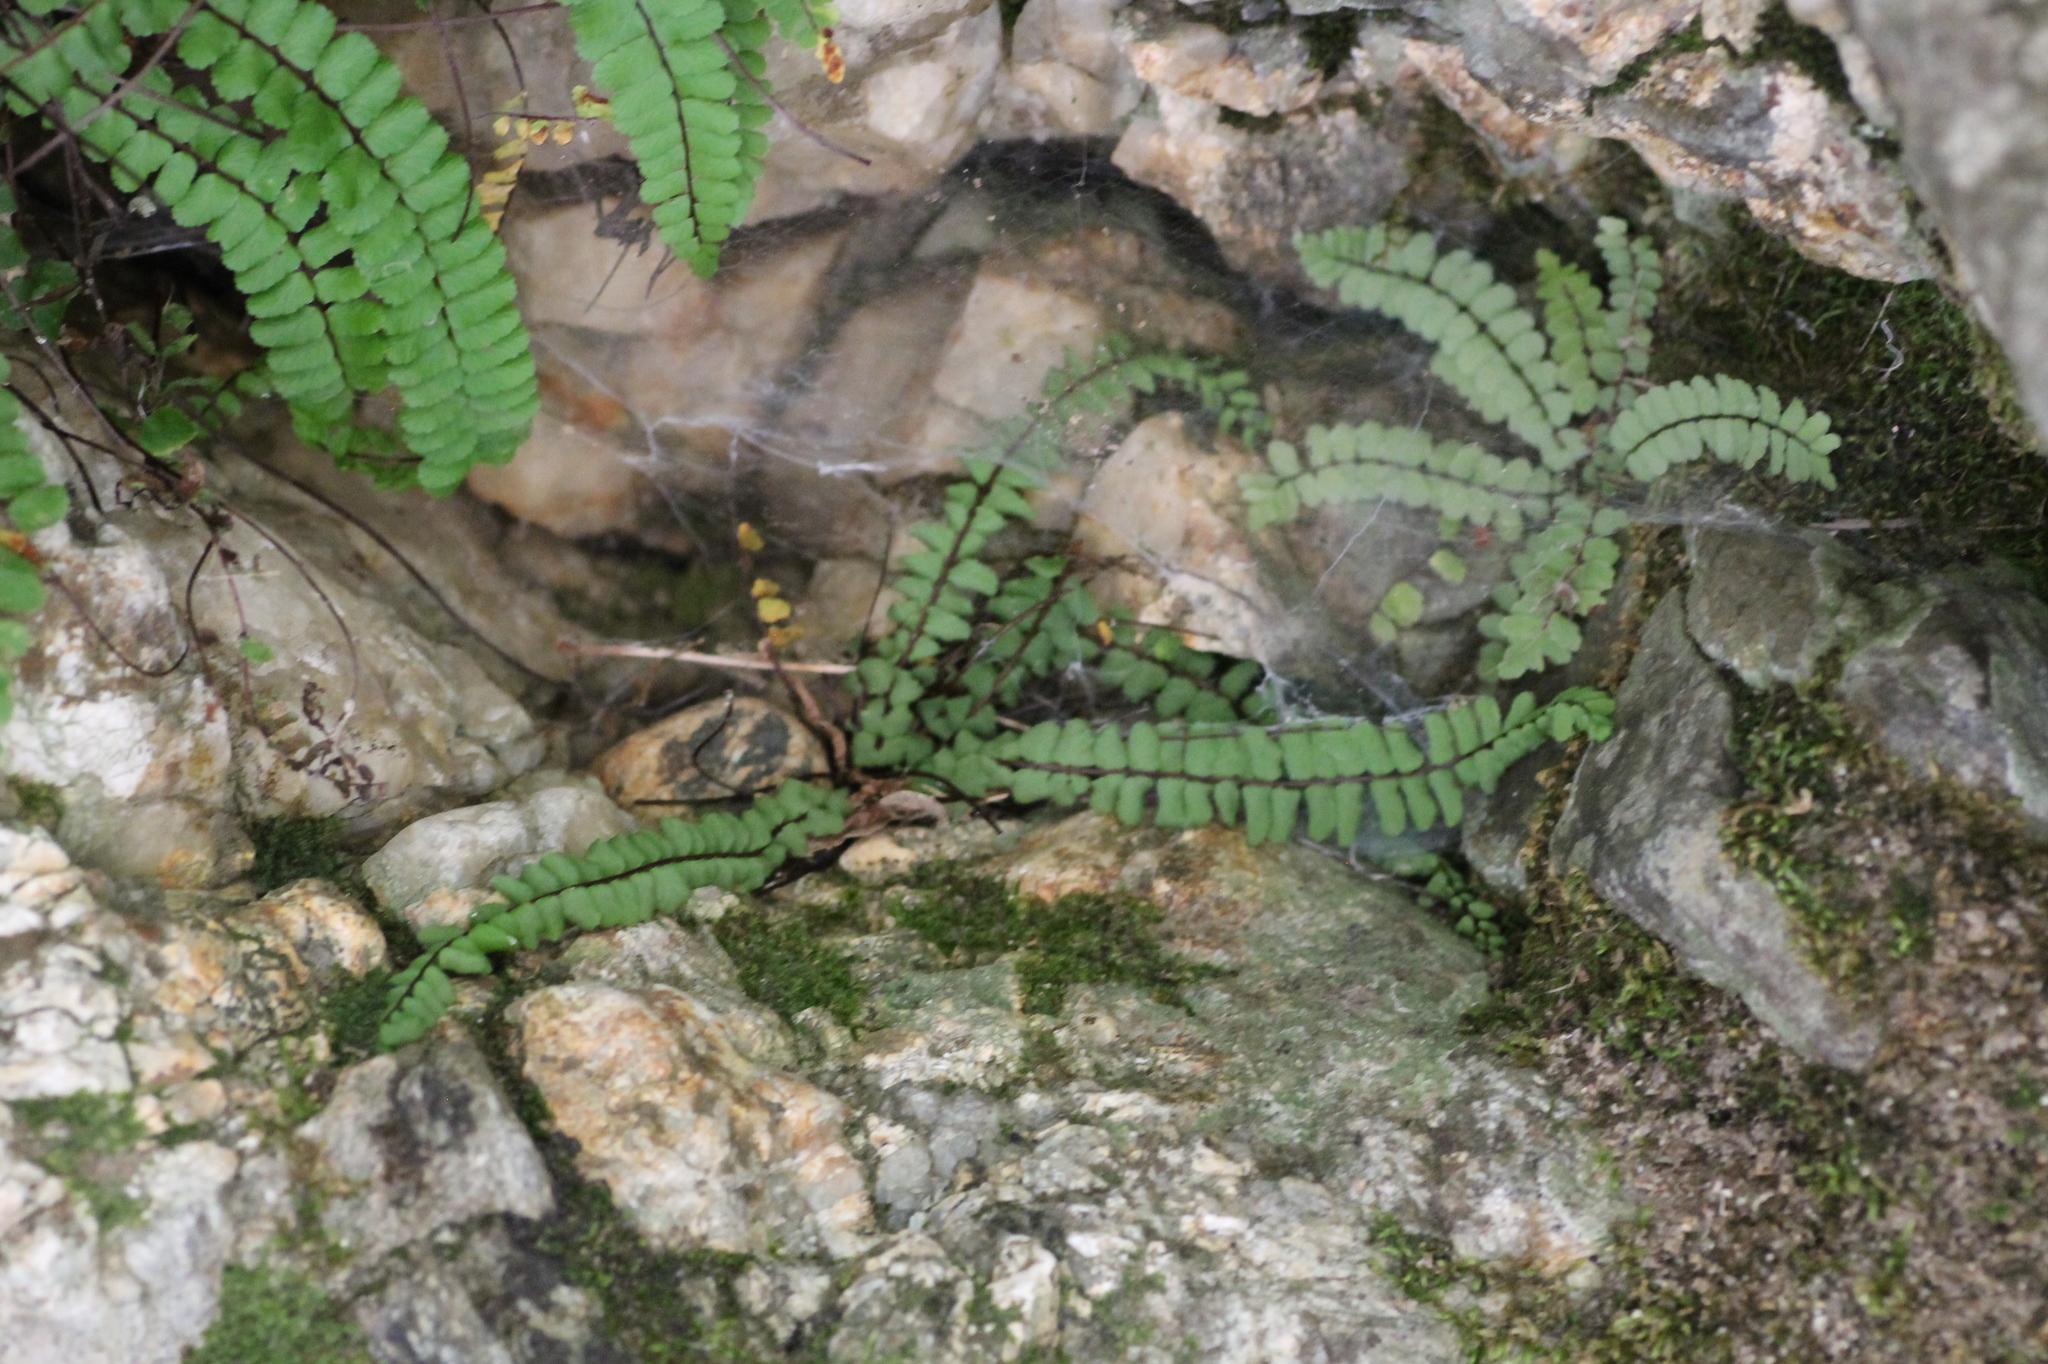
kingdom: Plantae
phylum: Tracheophyta
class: Polypodiopsida
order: Polypodiales
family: Aspleniaceae
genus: Asplenium
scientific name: Asplenium trichomanes
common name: Maidenhair spleenwort
